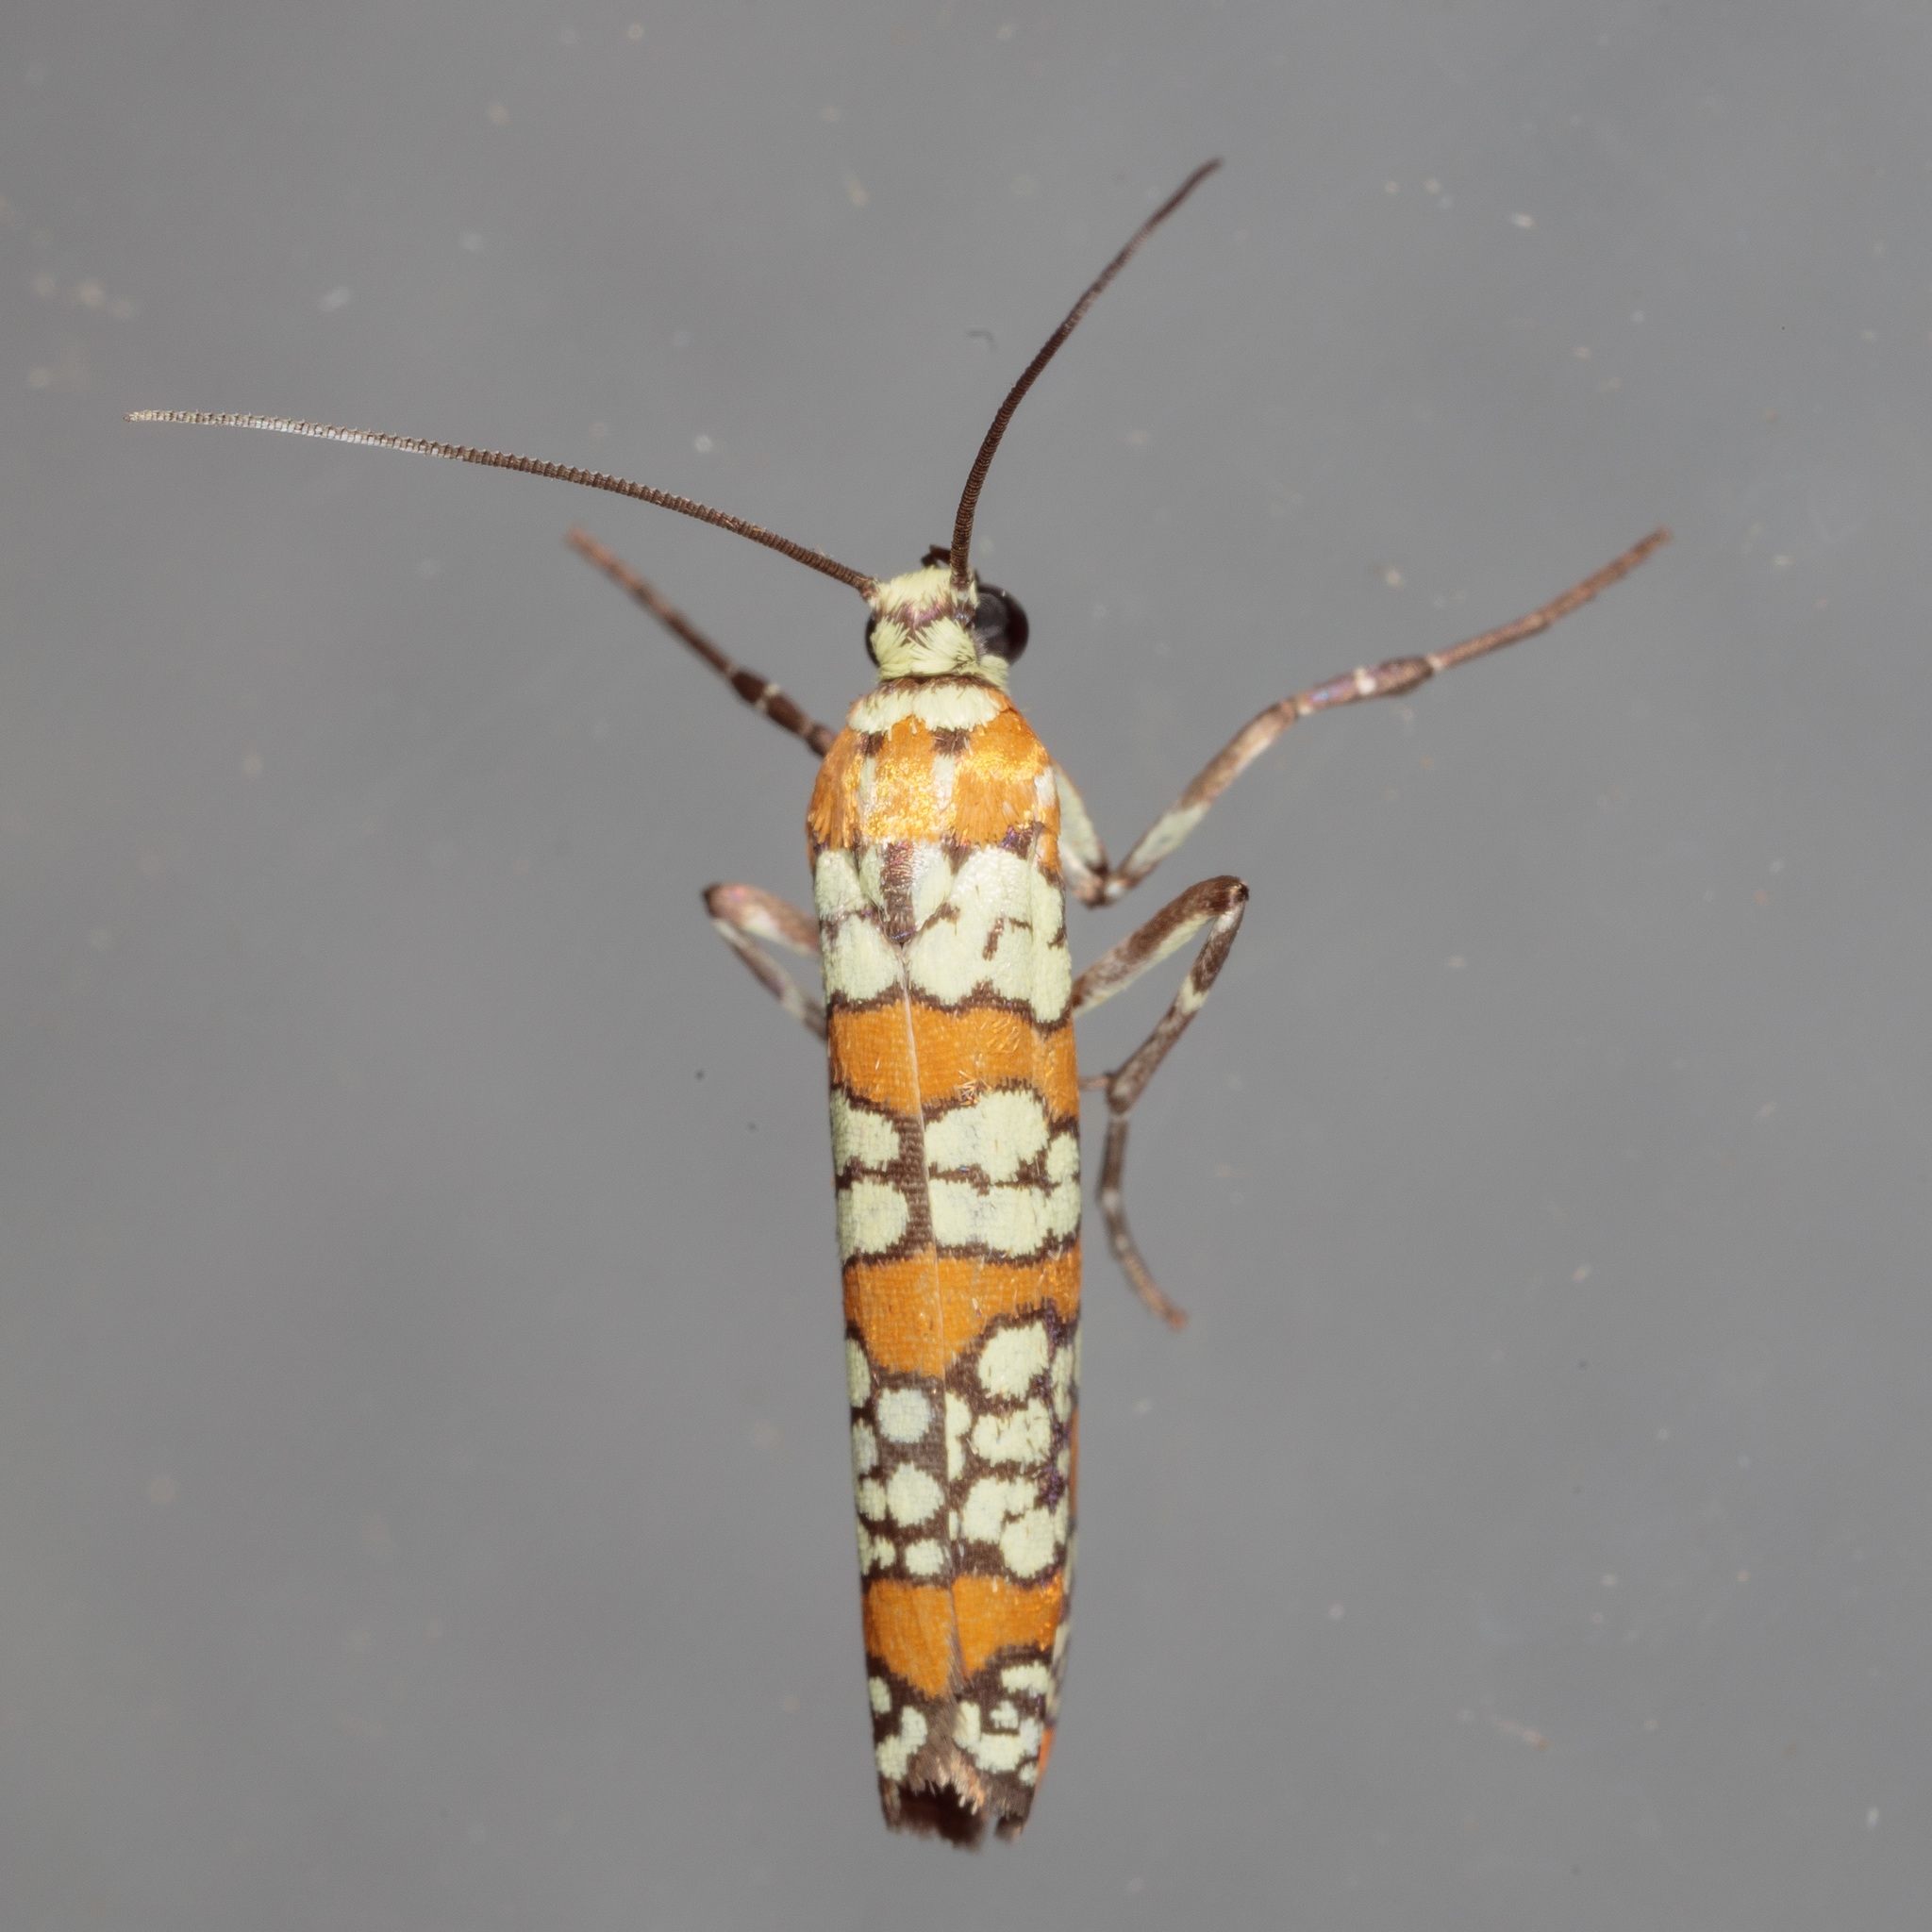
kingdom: Animalia
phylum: Arthropoda
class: Insecta
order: Lepidoptera
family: Attevidae
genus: Atteva
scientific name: Atteva punctella
